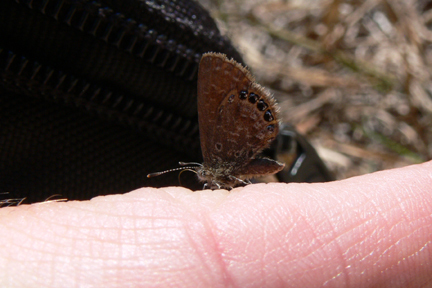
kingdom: Animalia
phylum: Arthropoda
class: Insecta
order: Lepidoptera
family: Lycaenidae
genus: Brephidium
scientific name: Brephidium isophthalma
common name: Eastern pygmy-blue
